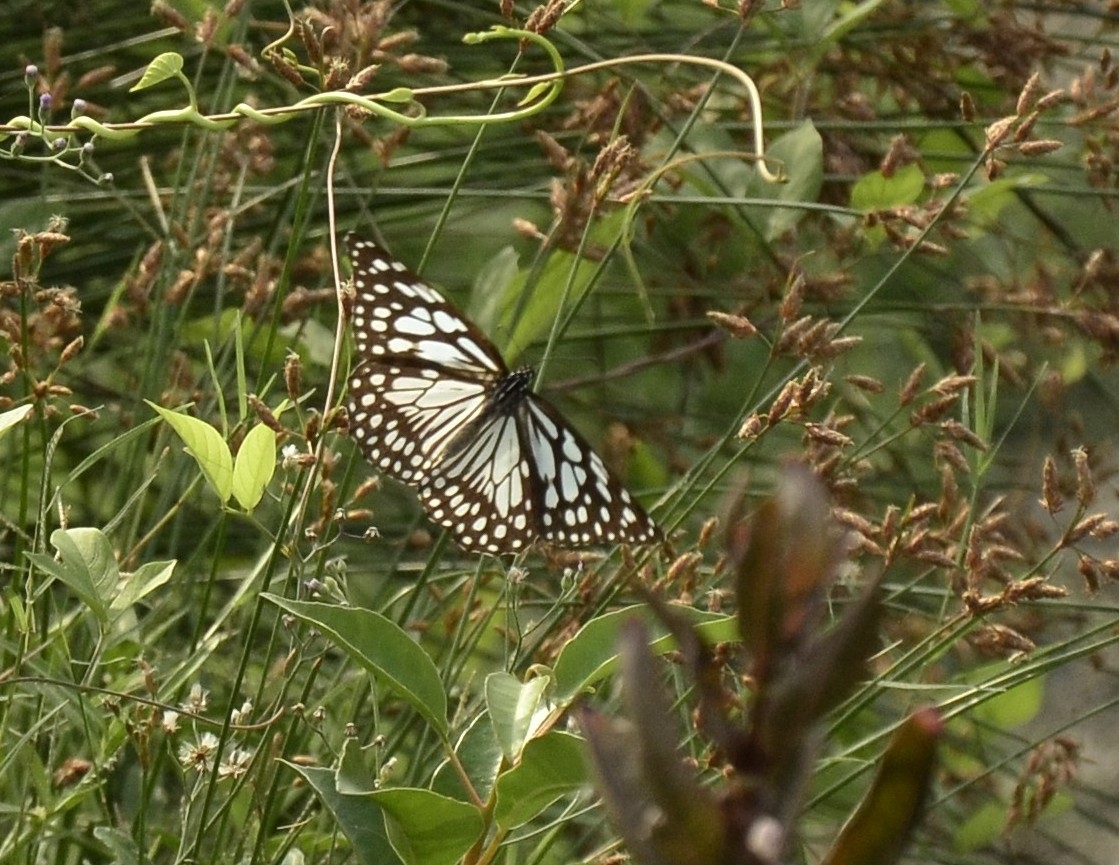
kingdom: Animalia
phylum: Arthropoda
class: Insecta
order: Lepidoptera
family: Nymphalidae
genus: Tirumala
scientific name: Tirumala limniace
